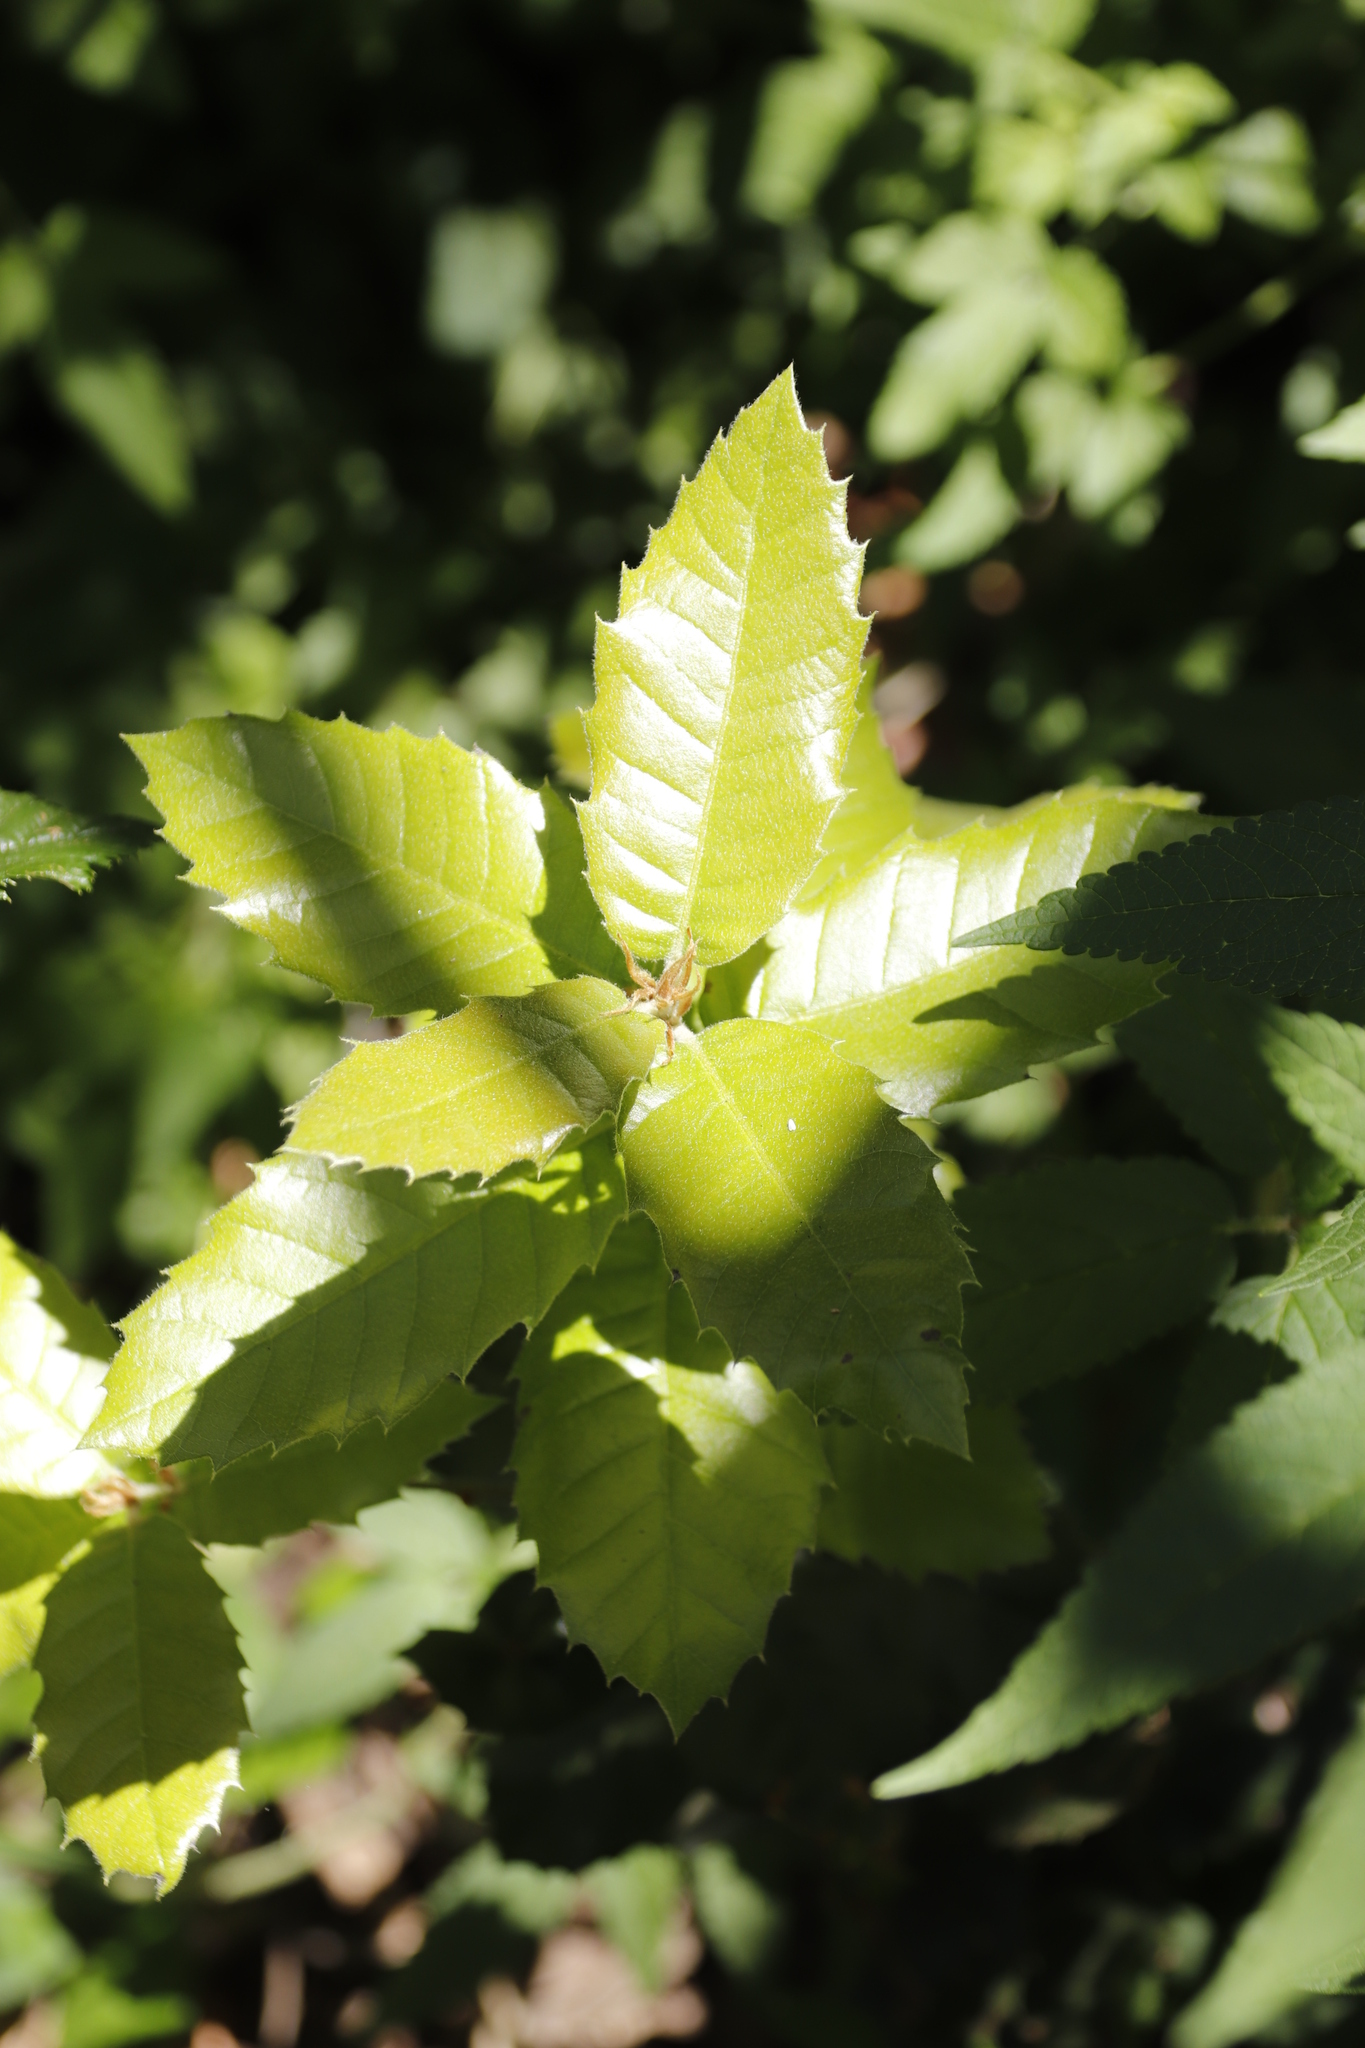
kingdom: Plantae
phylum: Tracheophyta
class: Magnoliopsida
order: Cornales
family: Curtisiaceae
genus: Curtisia
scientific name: Curtisia dentata
